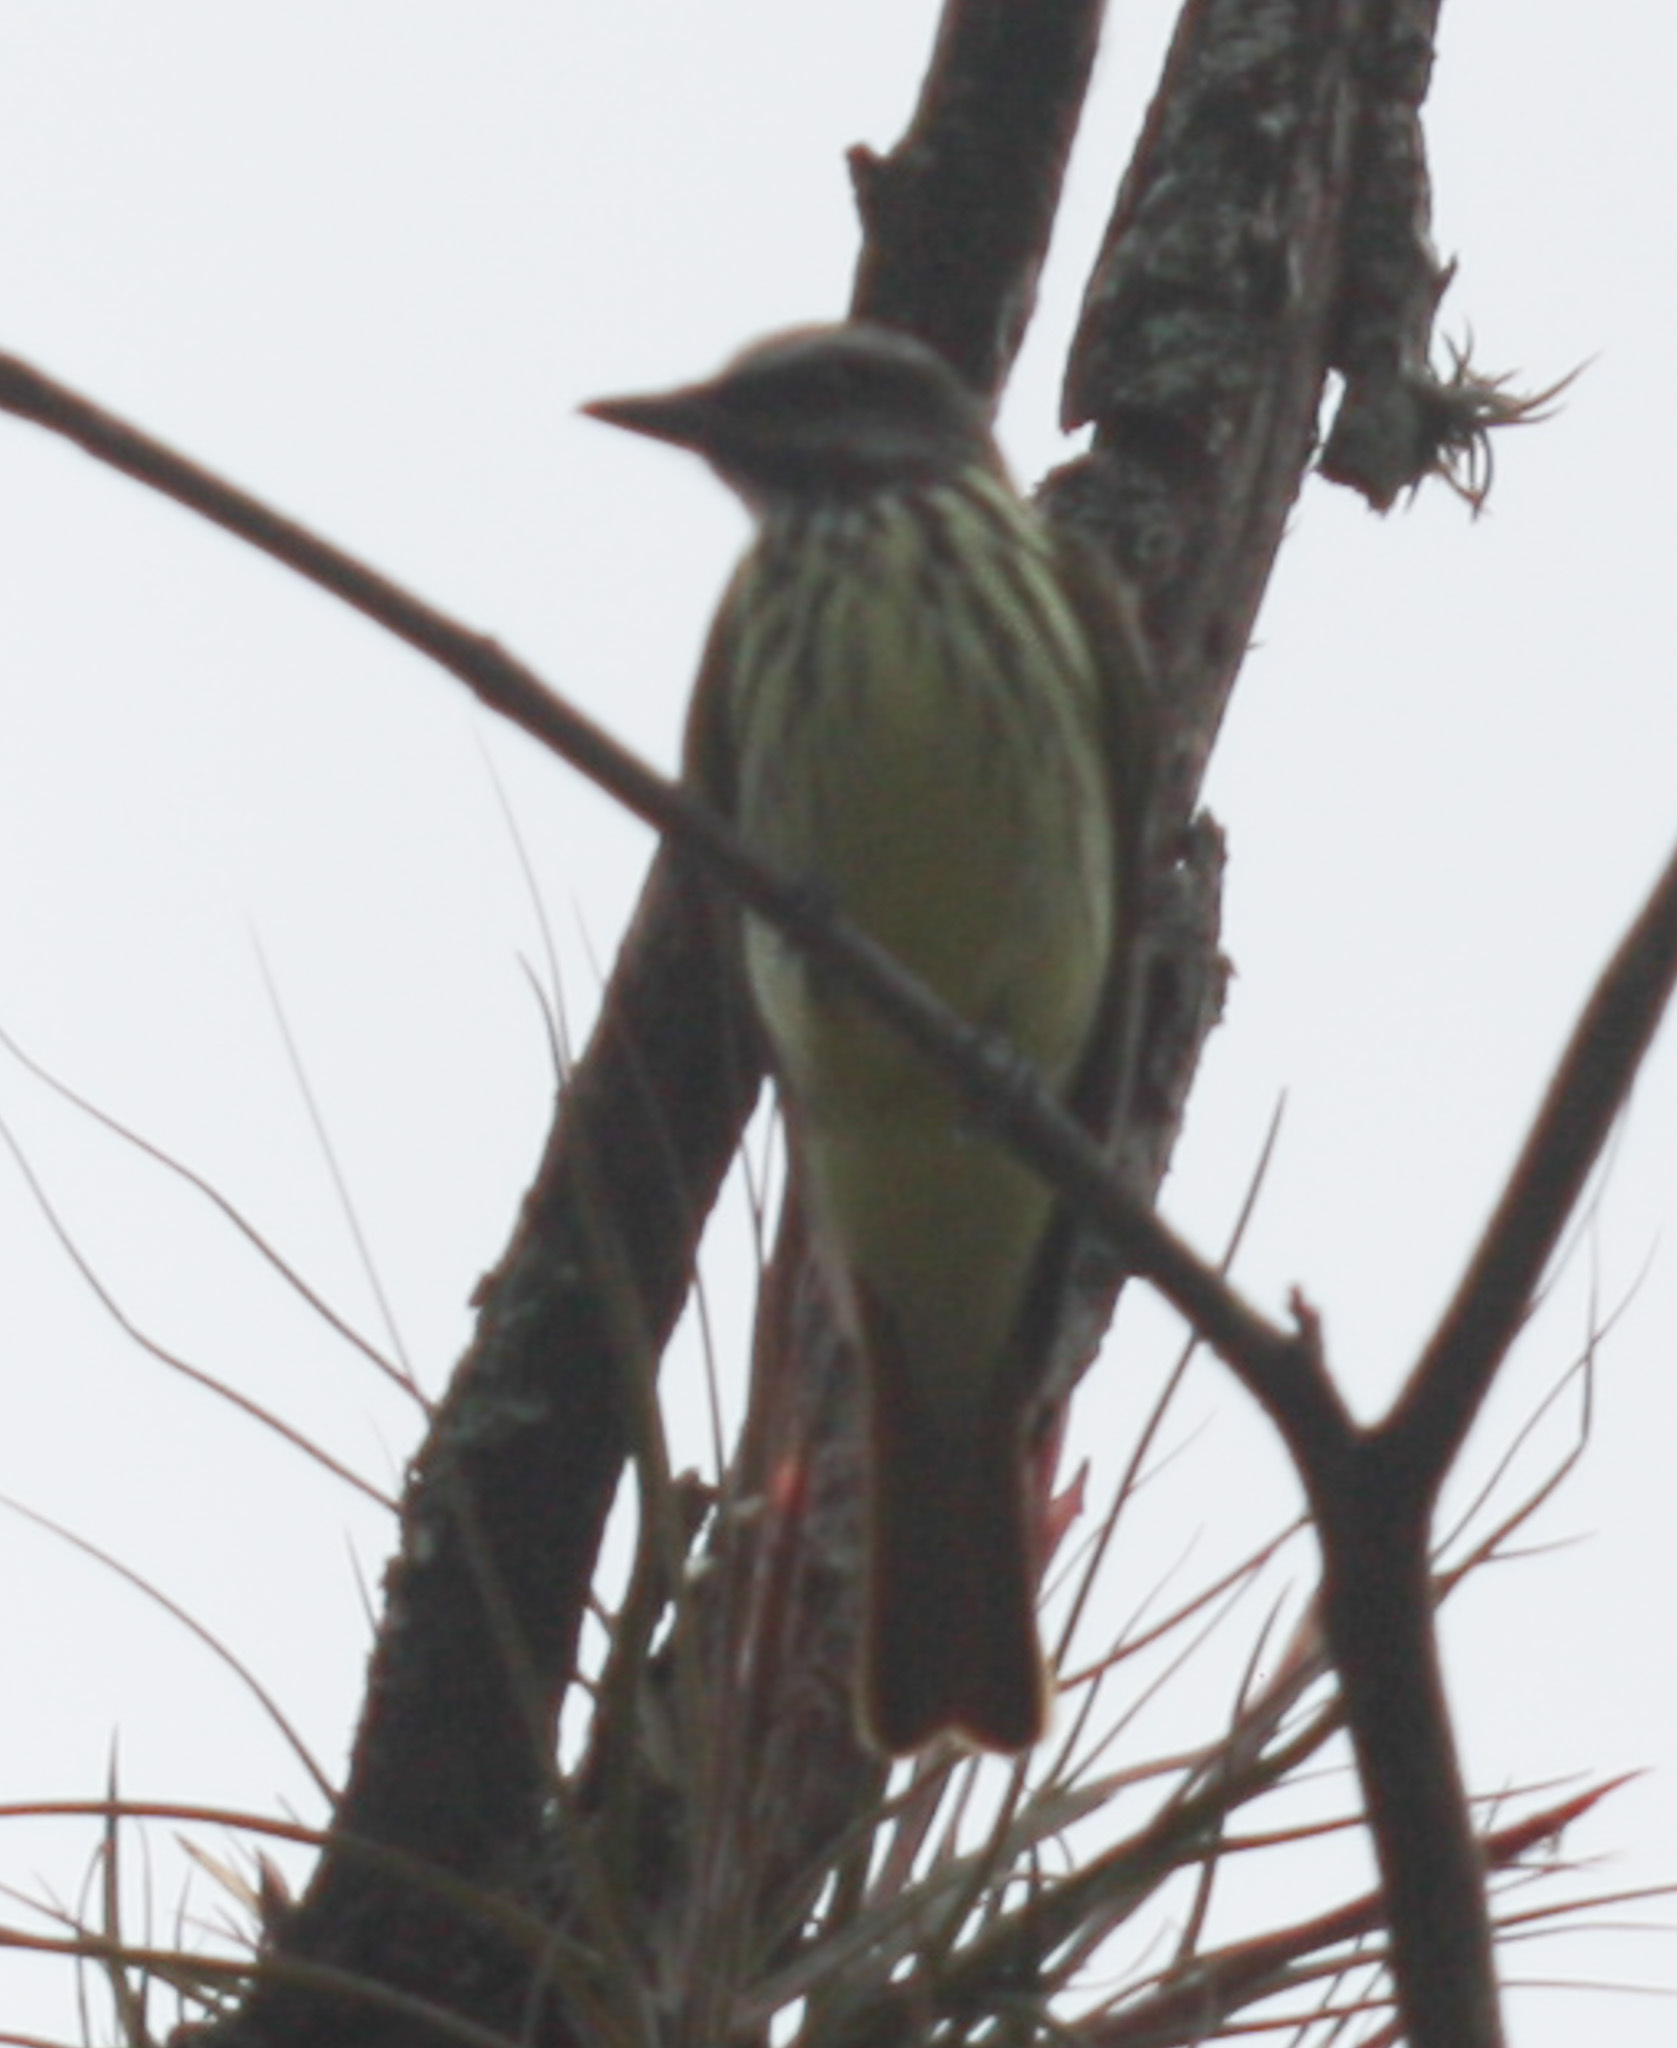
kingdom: Animalia
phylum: Chordata
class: Aves
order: Passeriformes
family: Tyrannidae
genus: Myiodynastes
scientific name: Myiodynastes luteiventris
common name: Sulphur-bellied flycatcher
